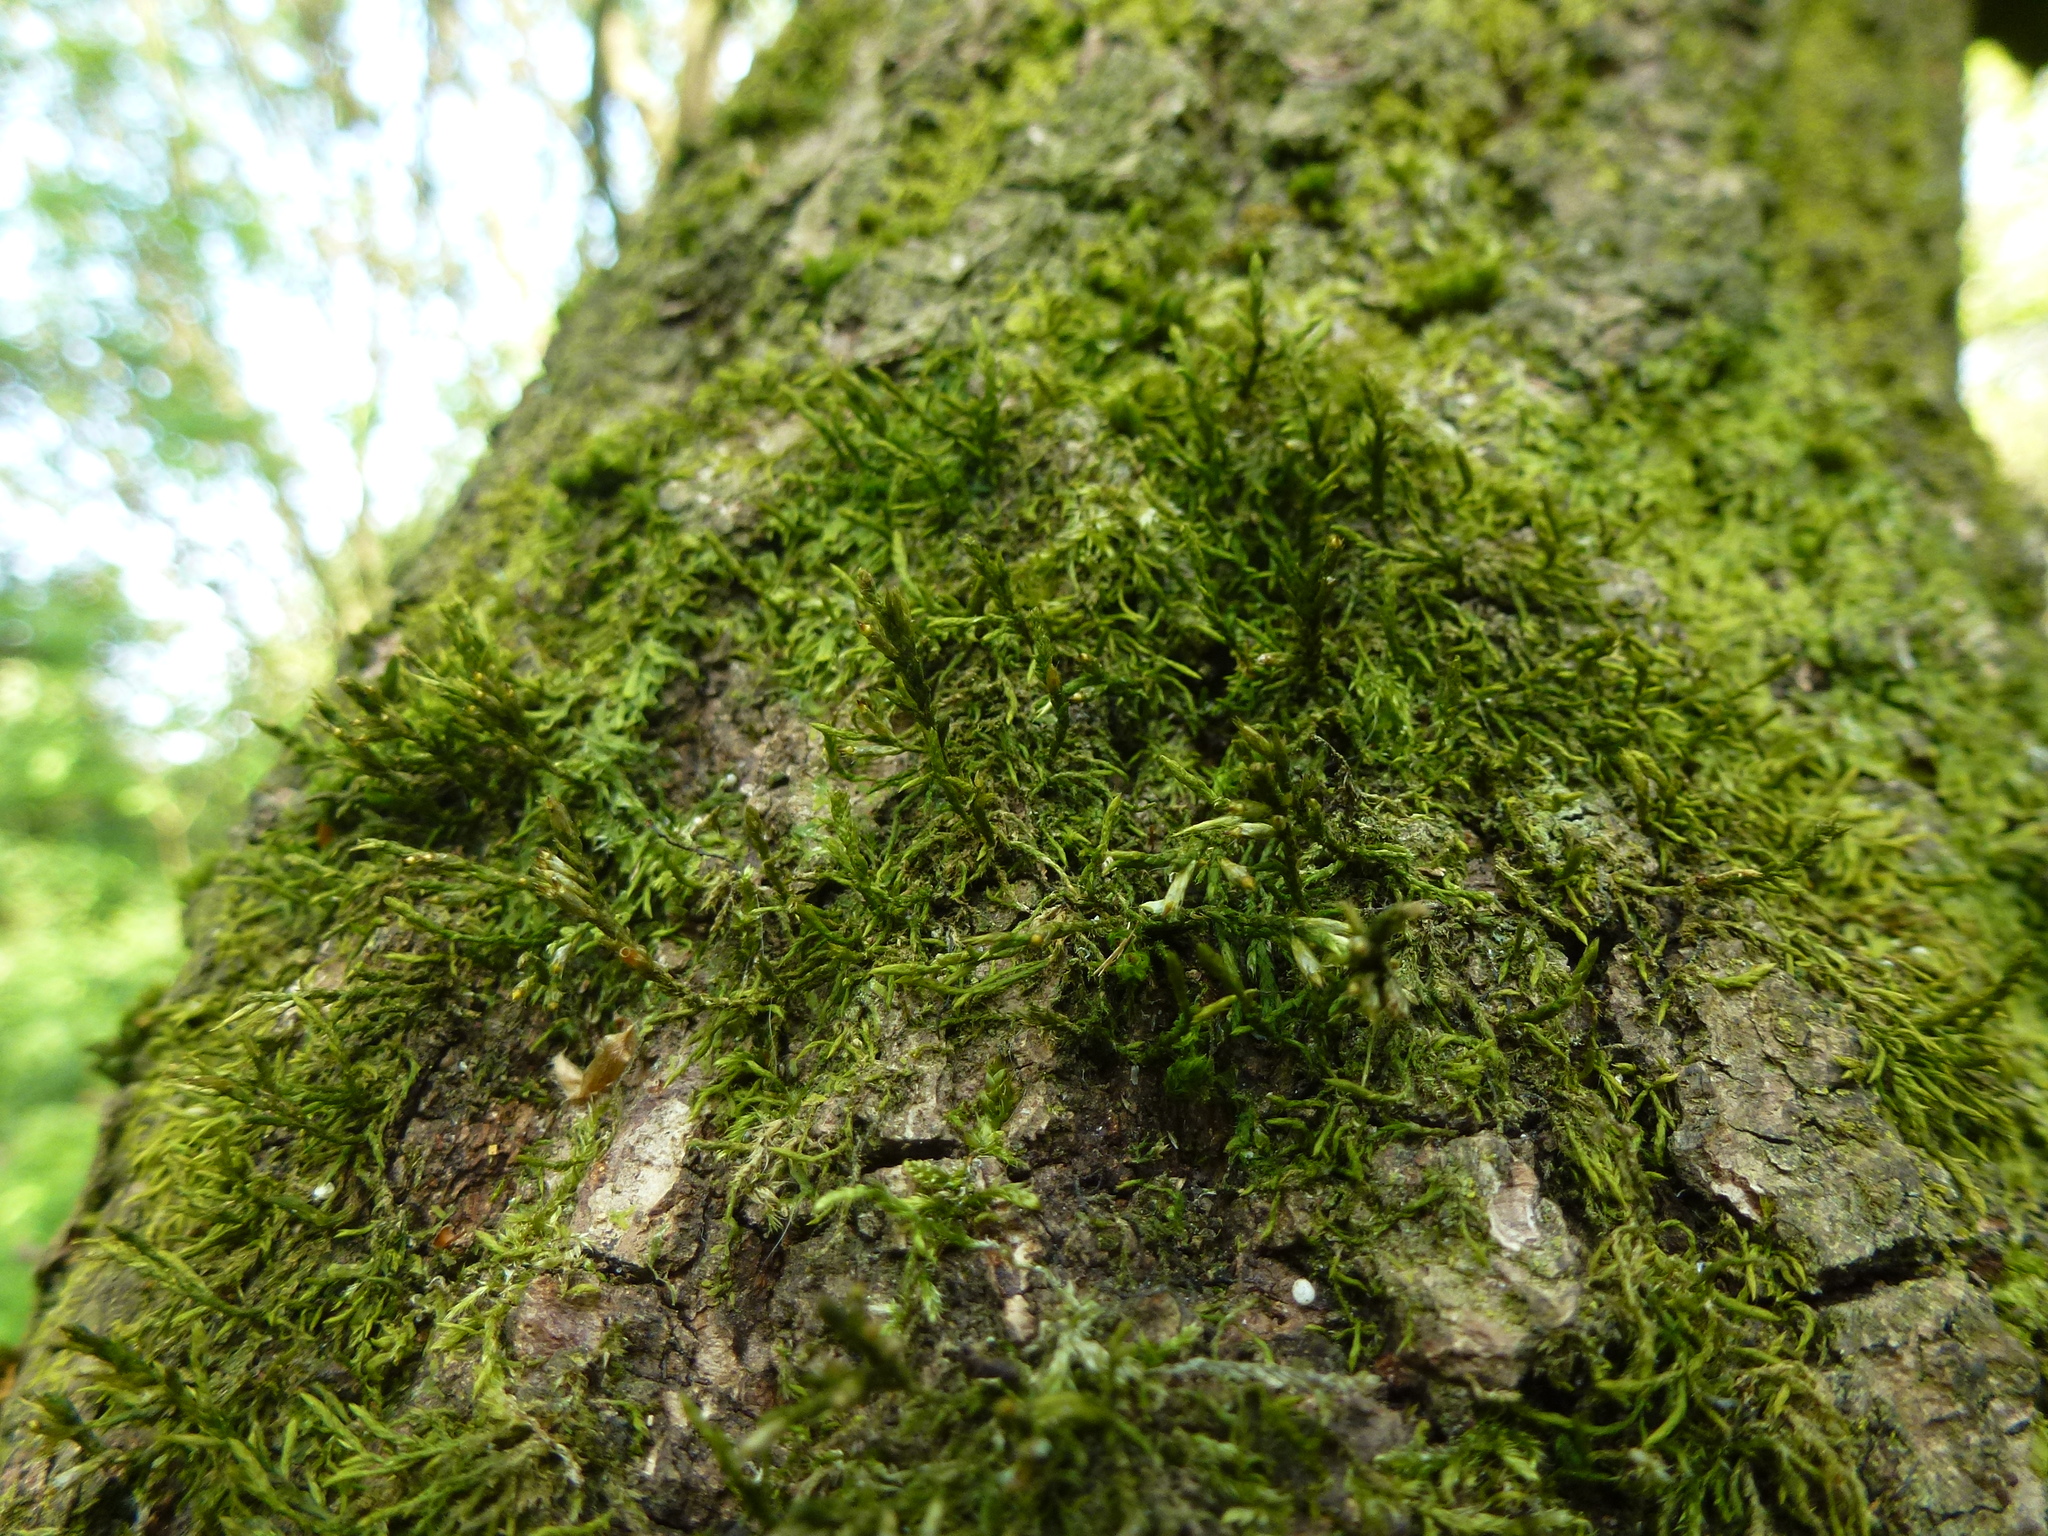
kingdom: Plantae
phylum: Bryophyta
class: Bryopsida
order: Hypnales
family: Cryphaeaceae
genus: Cryphaea
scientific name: Cryphaea heteromalla
